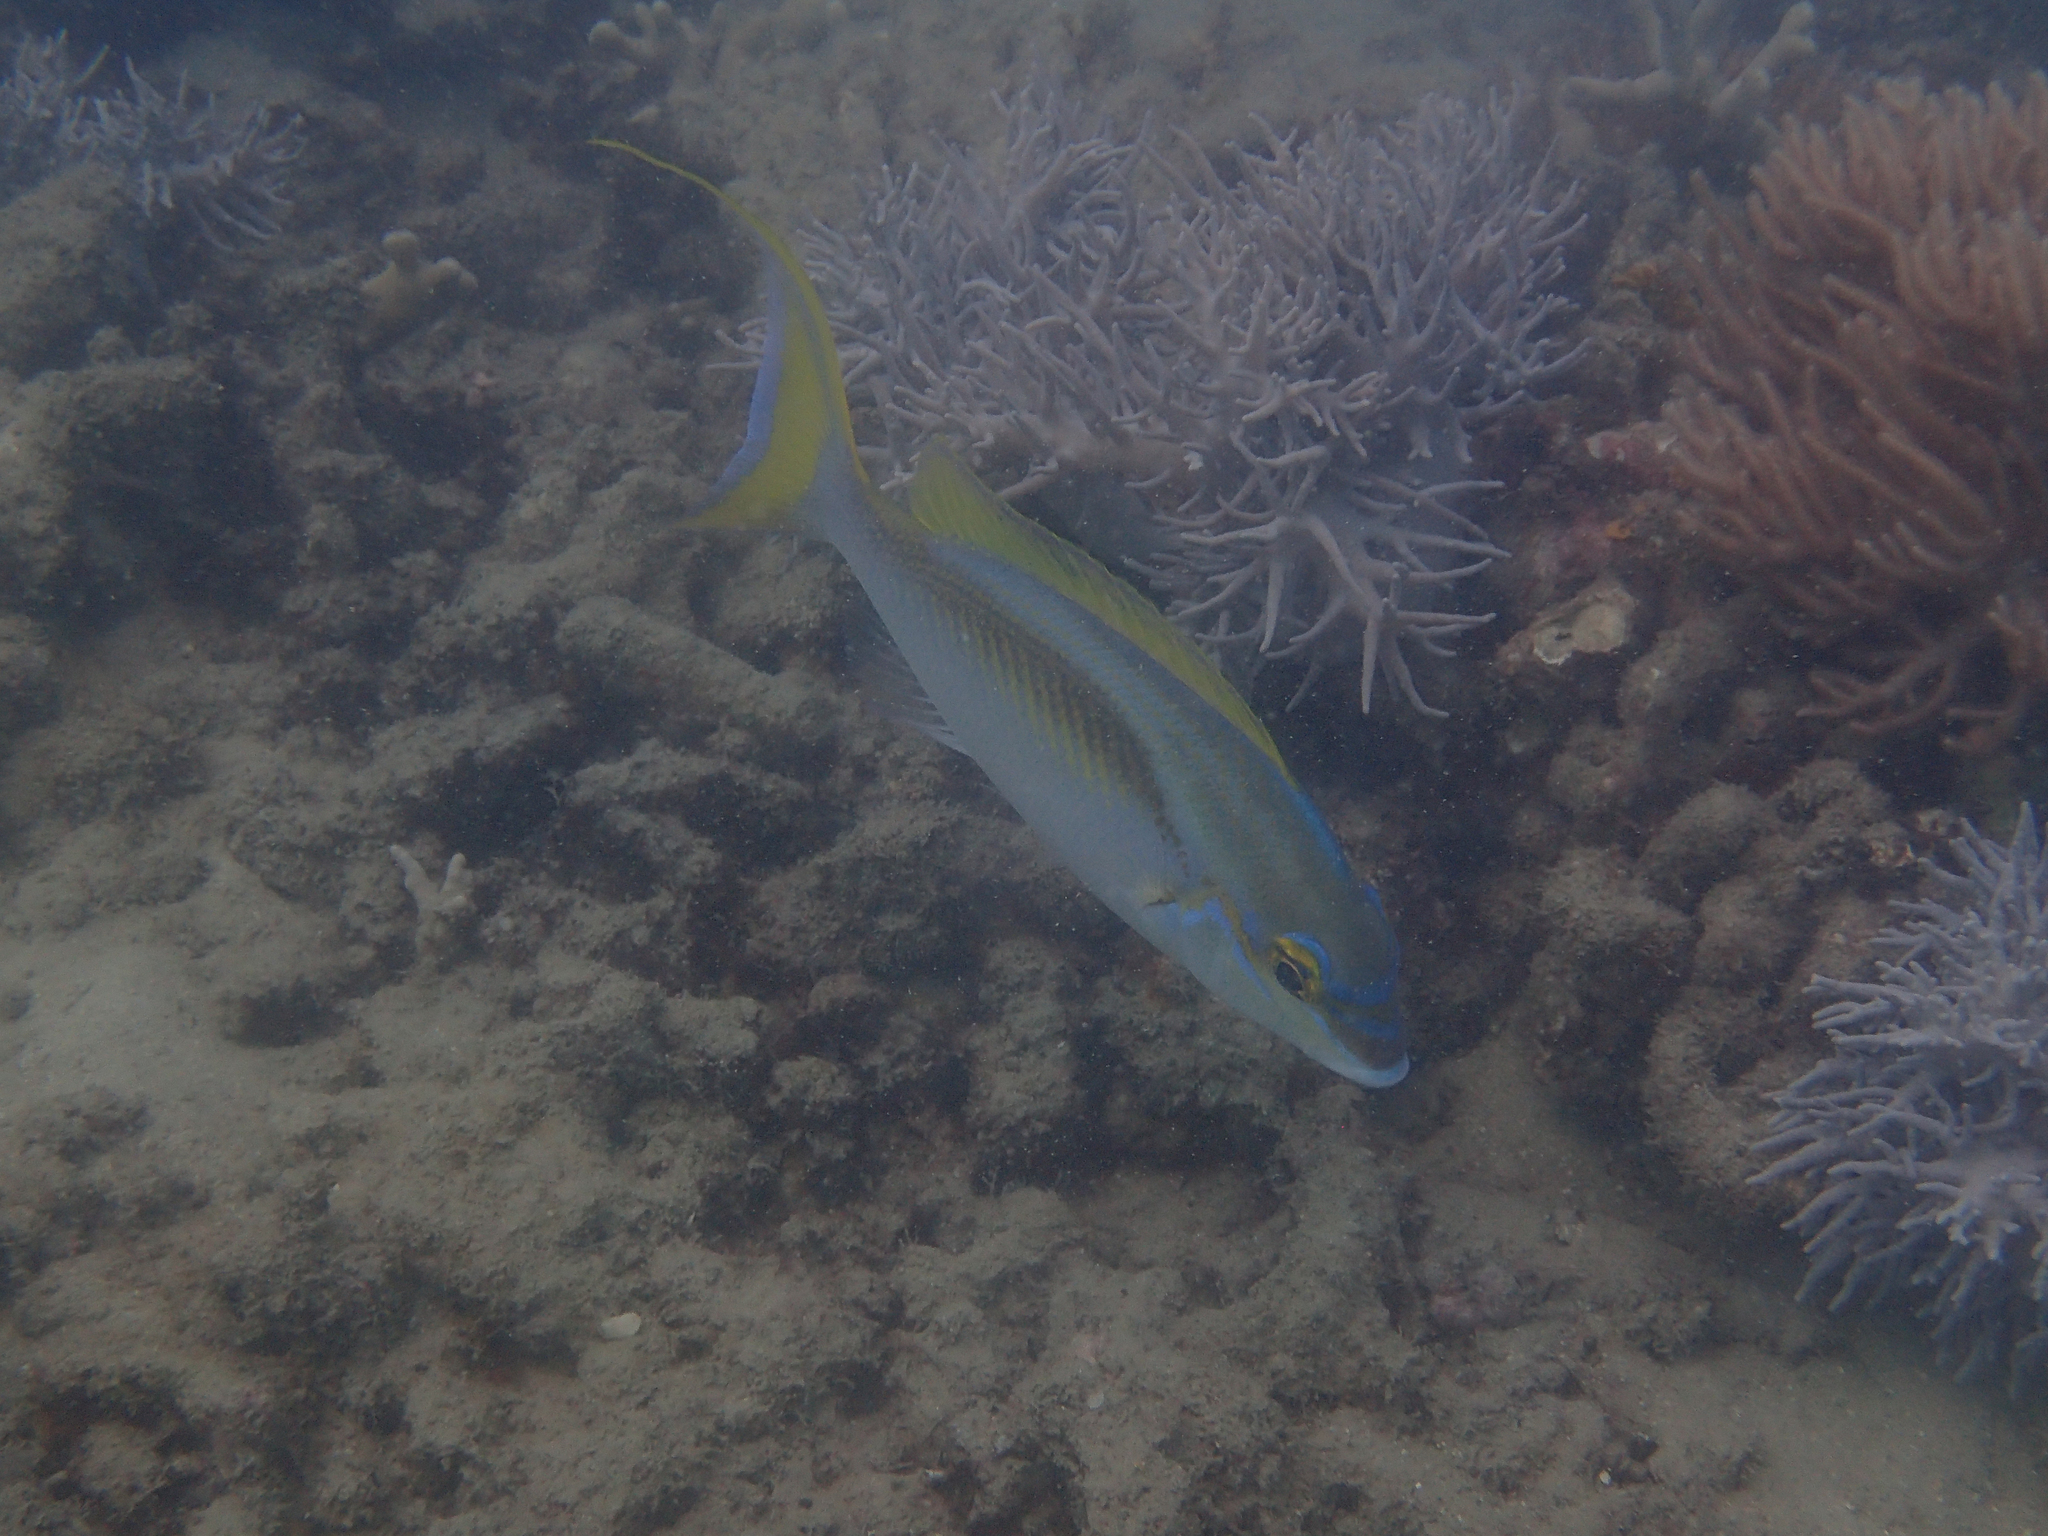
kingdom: Animalia
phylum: Chordata
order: Perciformes
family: Nemipteridae
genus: Scolopsis
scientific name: Scolopsis monogramma
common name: Monogrammed monocle bream
